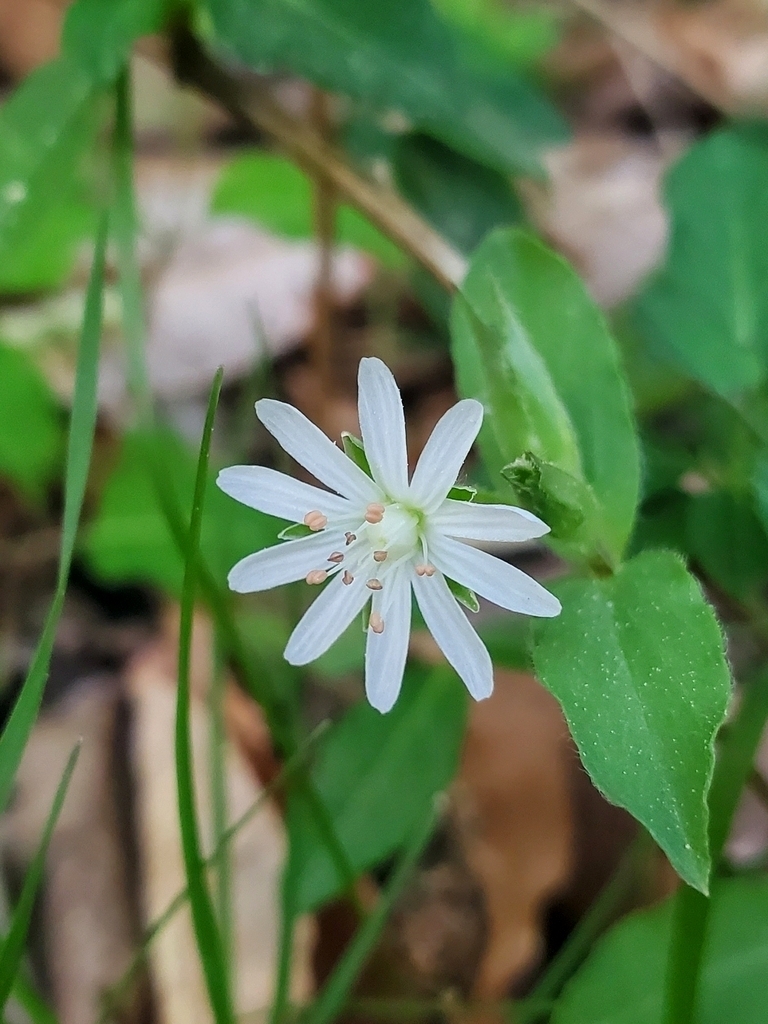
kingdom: Plantae
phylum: Tracheophyta
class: Magnoliopsida
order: Caryophyllales
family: Caryophyllaceae
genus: Stellaria
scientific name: Stellaria pubera
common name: Star chickweed
